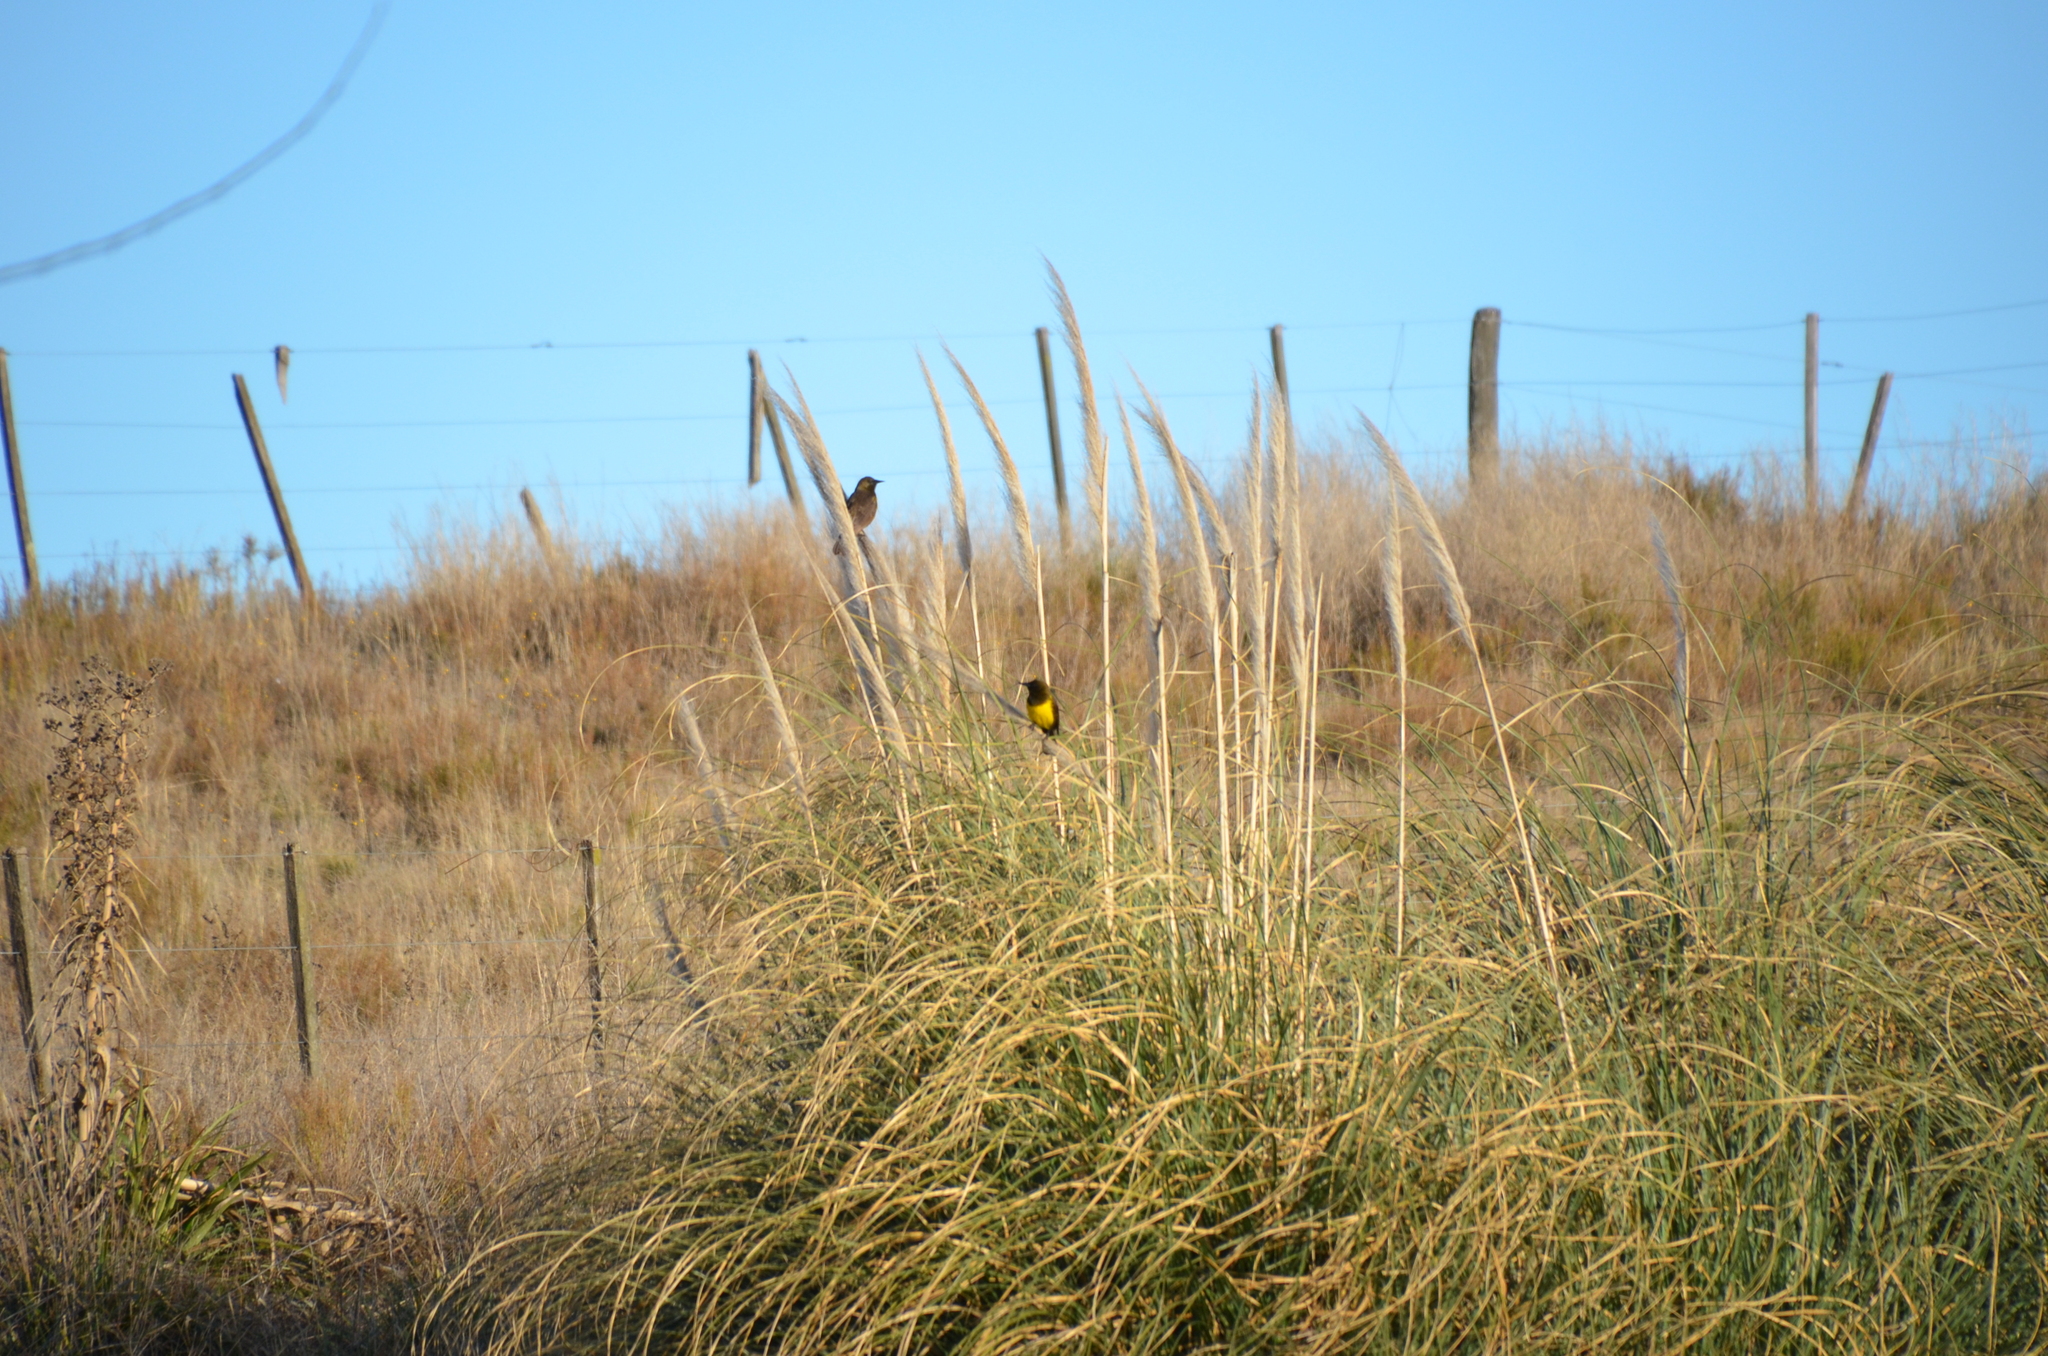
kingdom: Animalia
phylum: Chordata
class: Aves
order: Passeriformes
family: Icteridae
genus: Pseudoleistes
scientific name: Pseudoleistes virescens
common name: Brown-and-yellow marshbird
